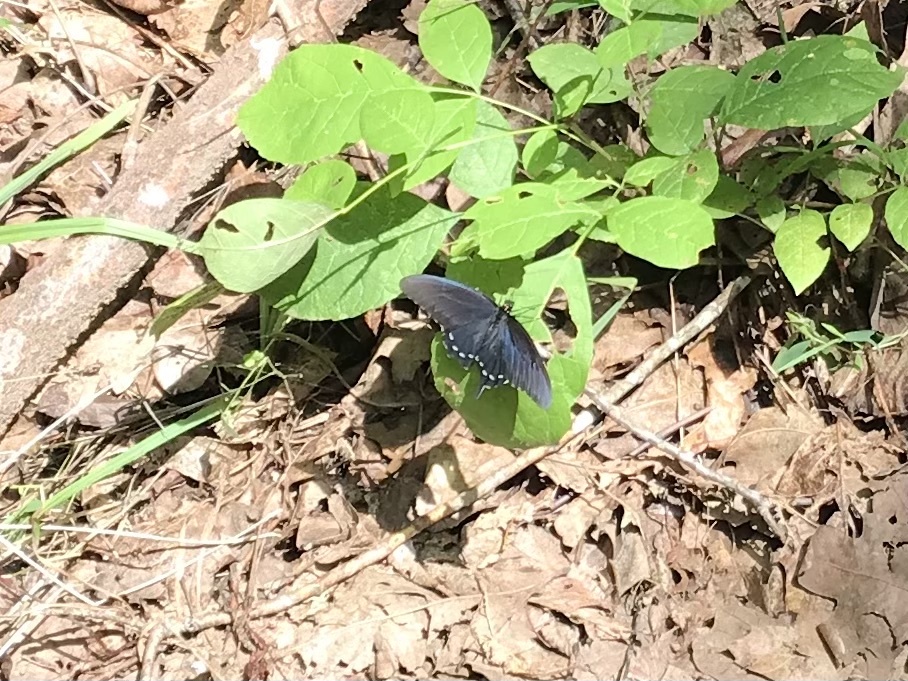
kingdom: Animalia
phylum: Arthropoda
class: Insecta
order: Lepidoptera
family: Papilionidae
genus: Battus
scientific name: Battus philenor
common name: Pipevine swallowtail
